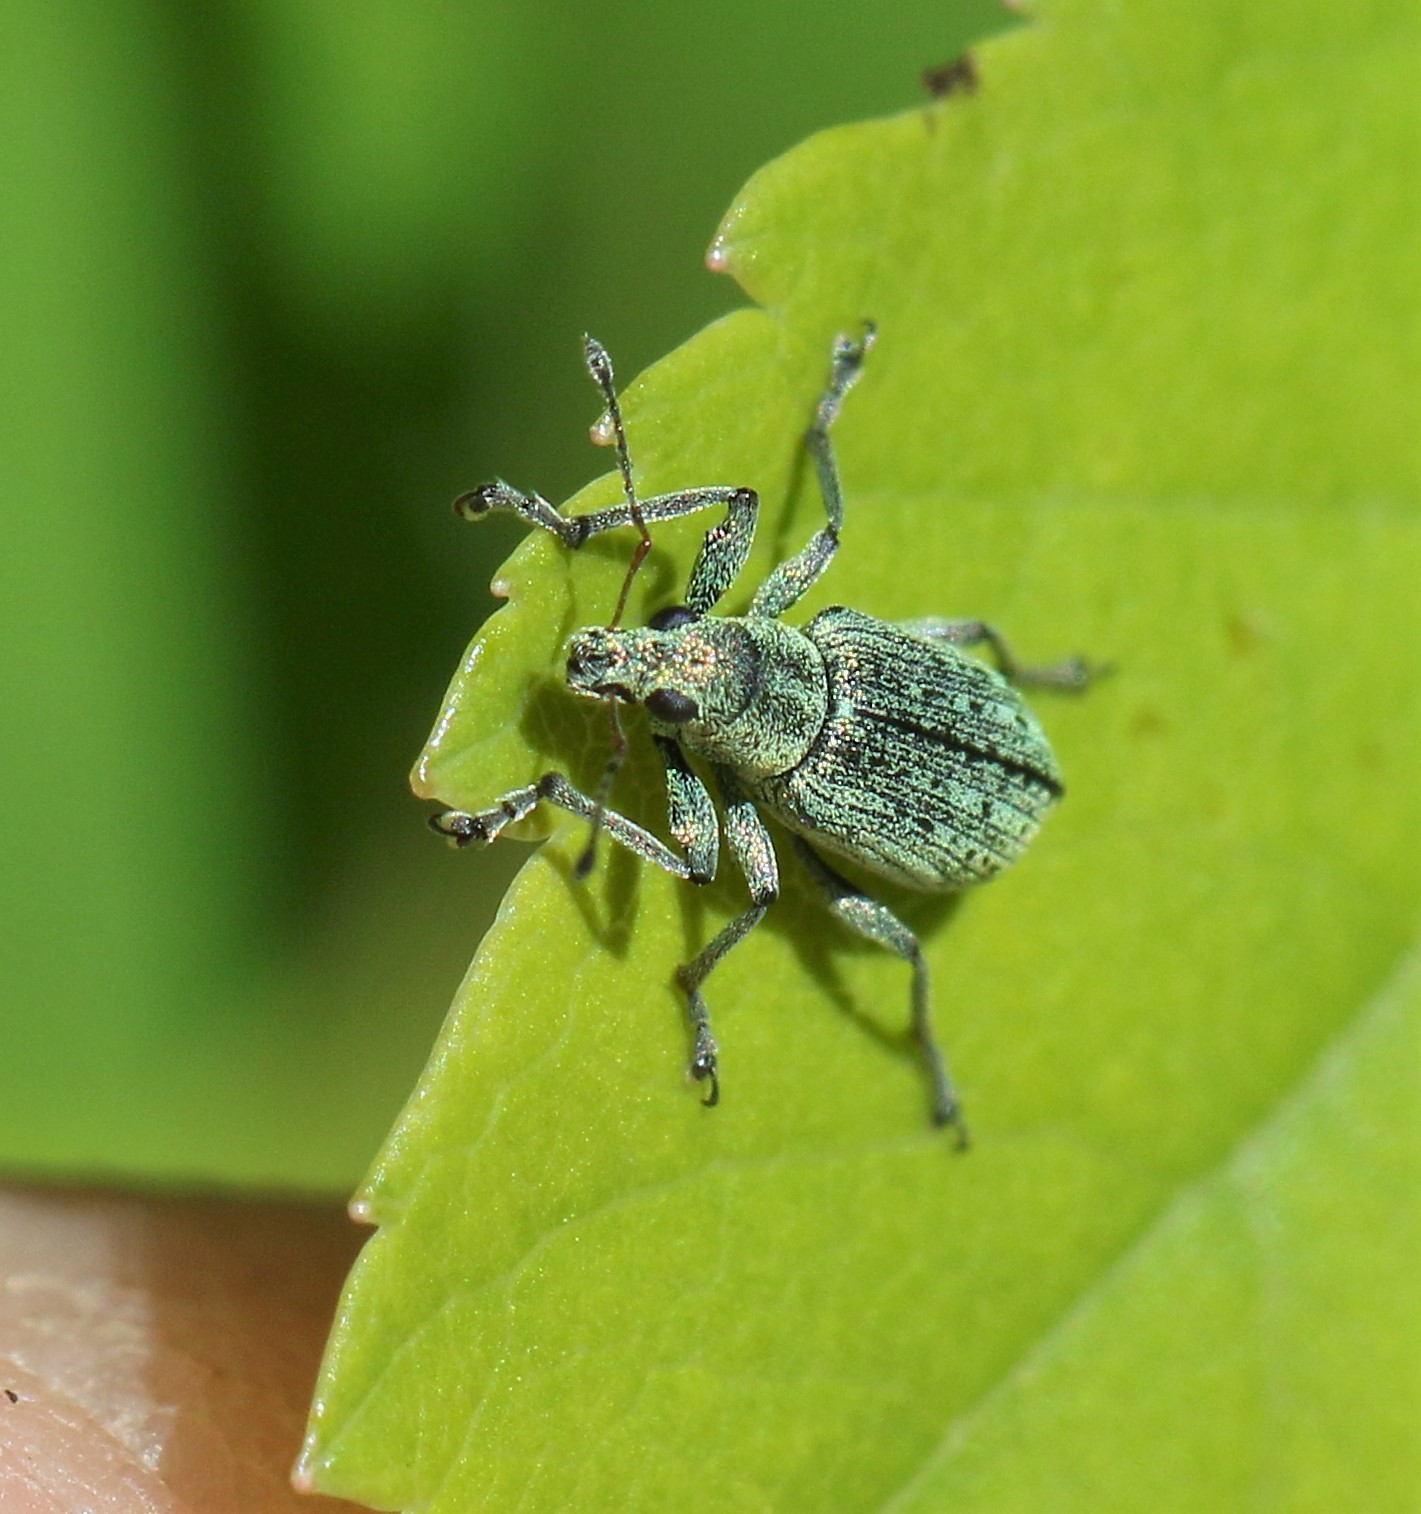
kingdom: Animalia
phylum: Arthropoda
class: Insecta
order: Coleoptera
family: Curculionidae
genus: Polydrusus
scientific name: Polydrusus cervinus
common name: Weevil
